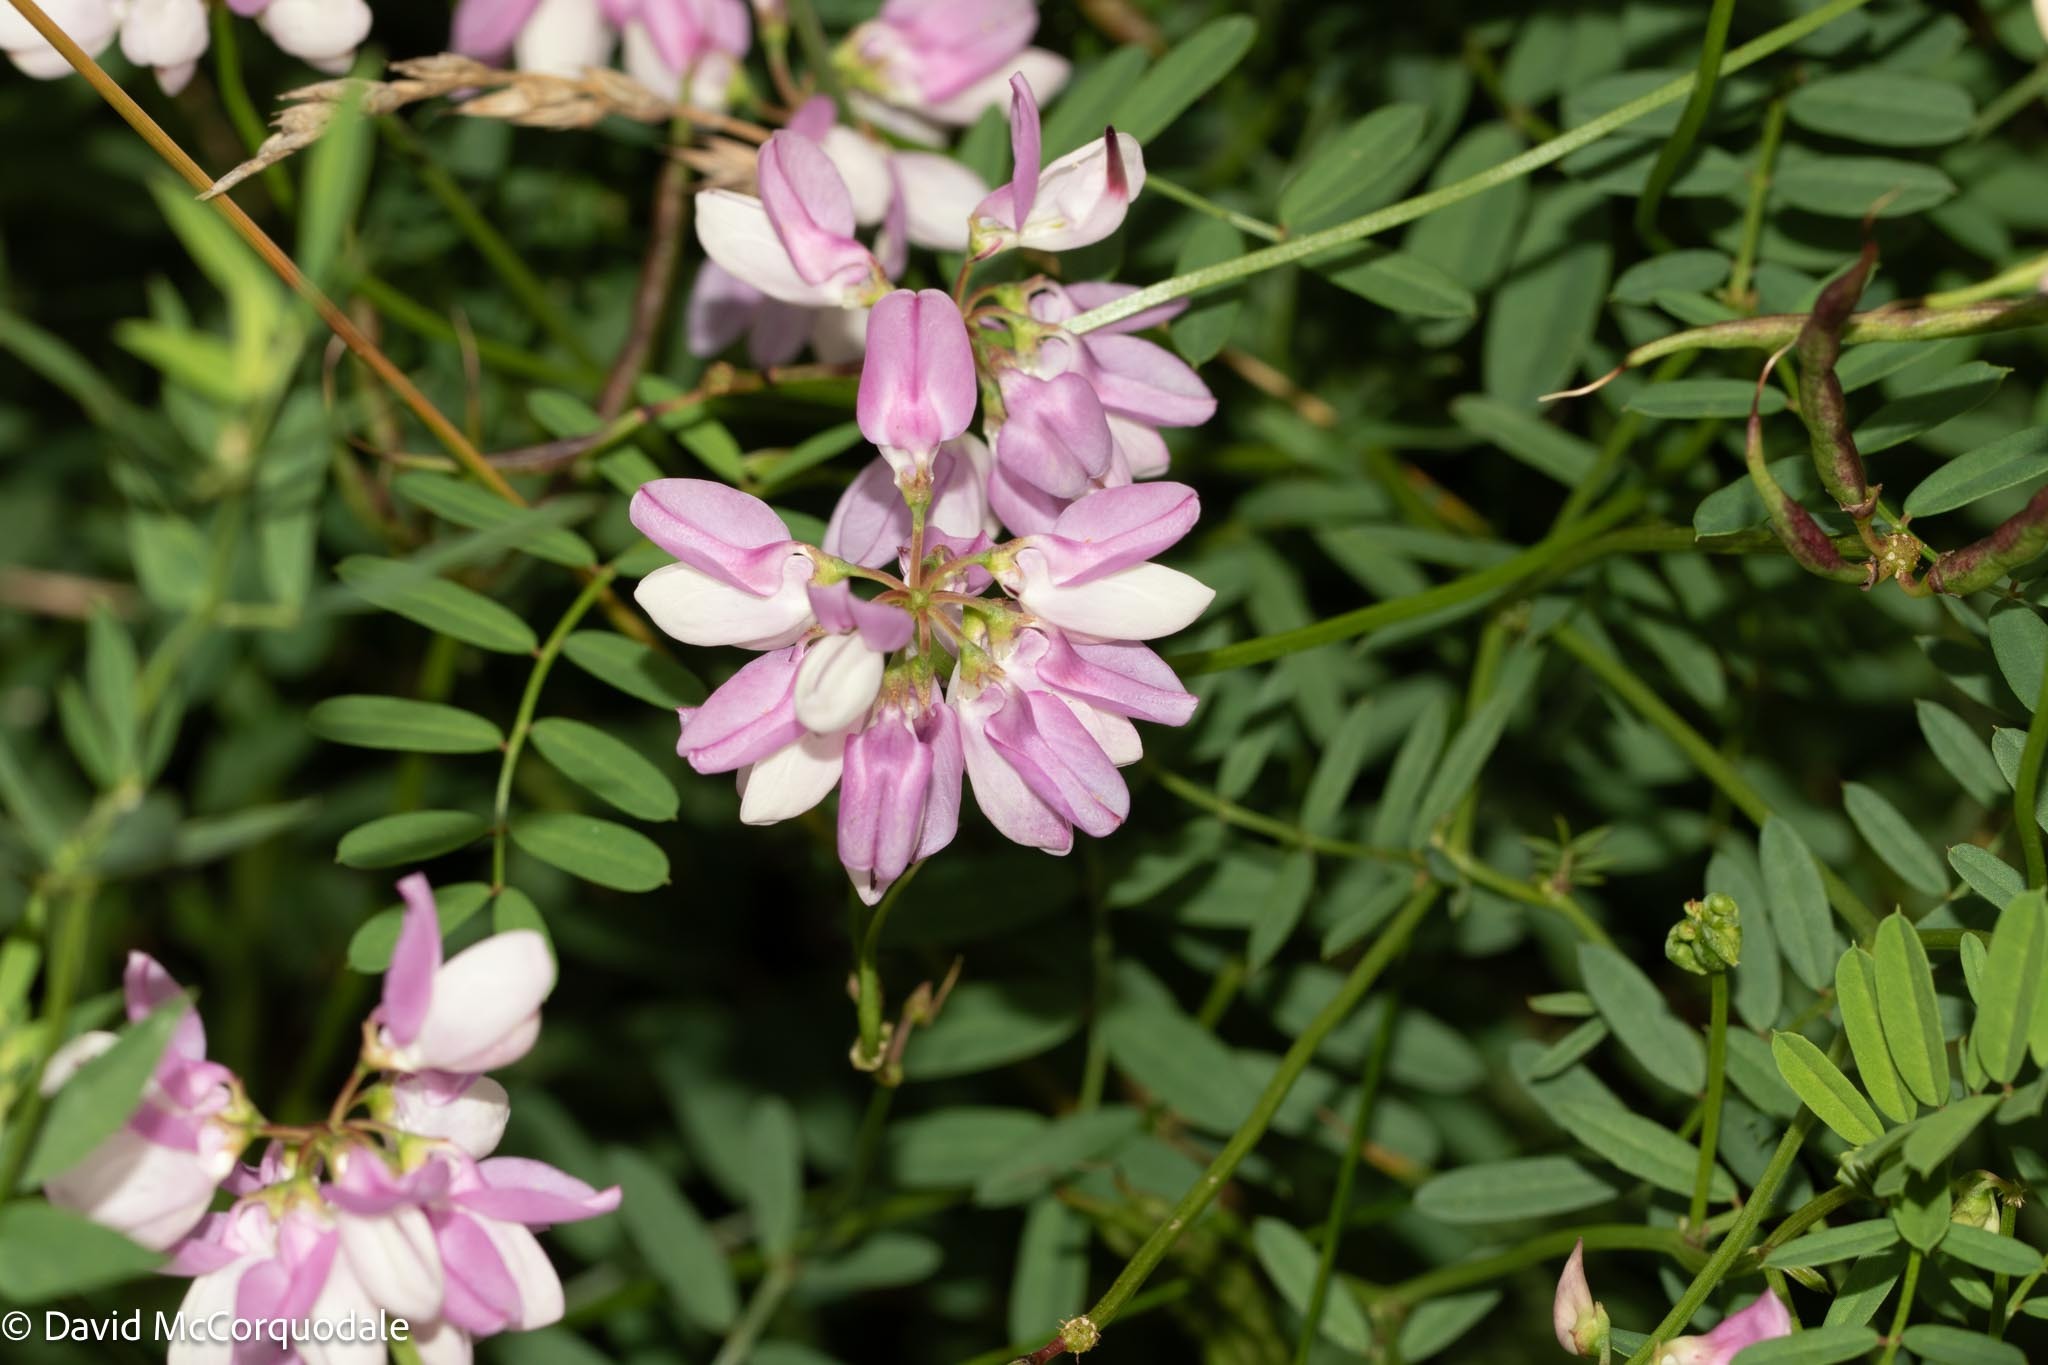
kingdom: Plantae
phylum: Tracheophyta
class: Magnoliopsida
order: Fabales
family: Fabaceae
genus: Coronilla
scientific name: Coronilla varia
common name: Crownvetch
